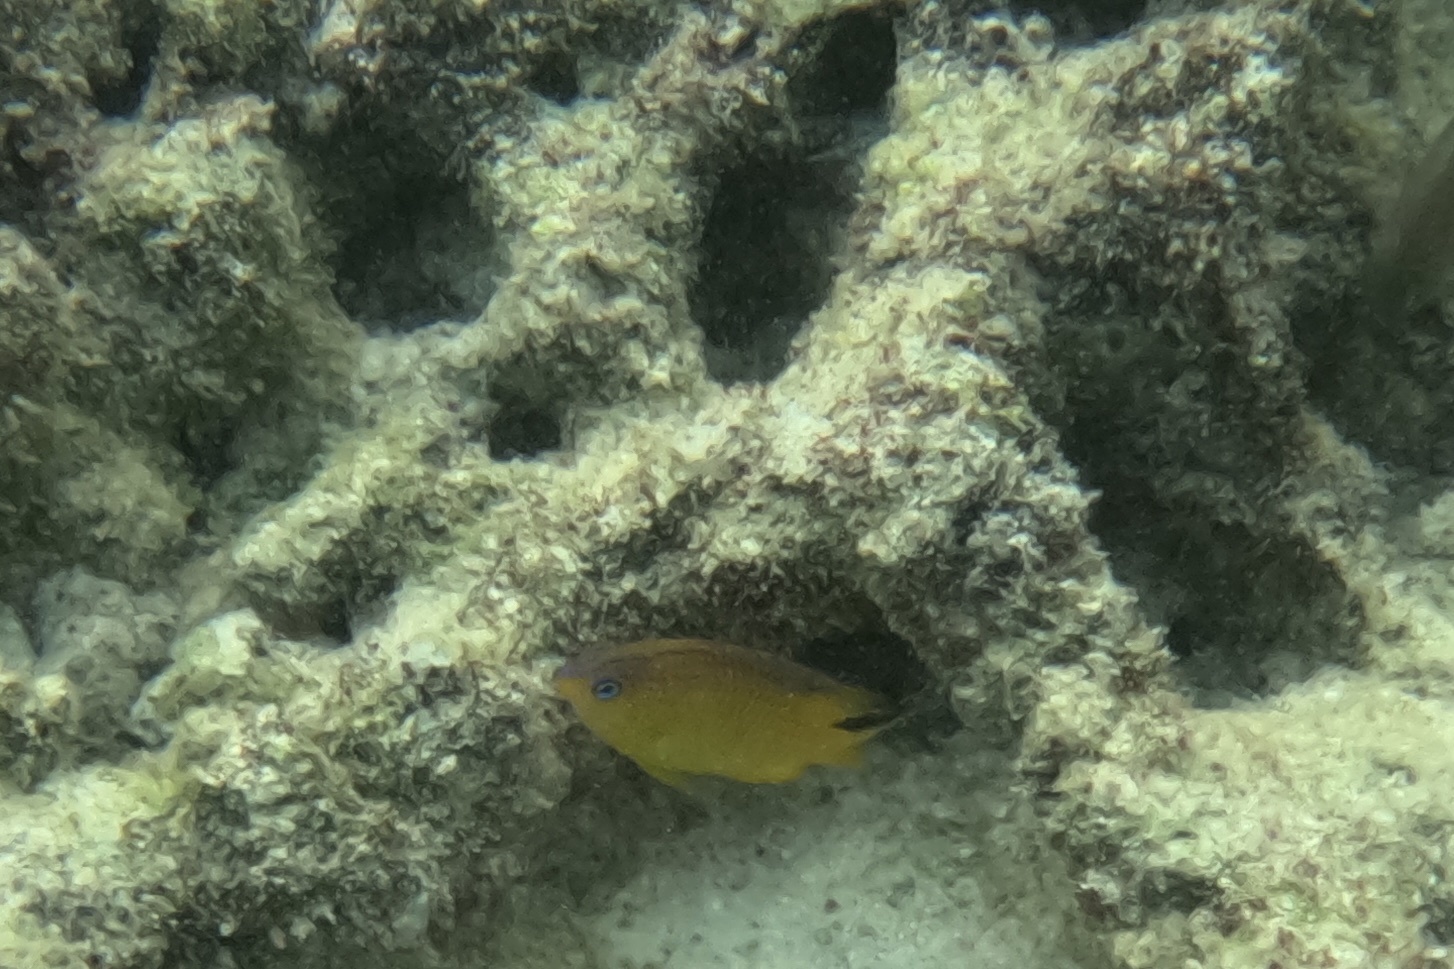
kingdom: Animalia
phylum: Chordata
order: Perciformes
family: Pomacentridae
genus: Stegastes
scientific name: Stegastes diencaeus
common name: Longfin damselfish
